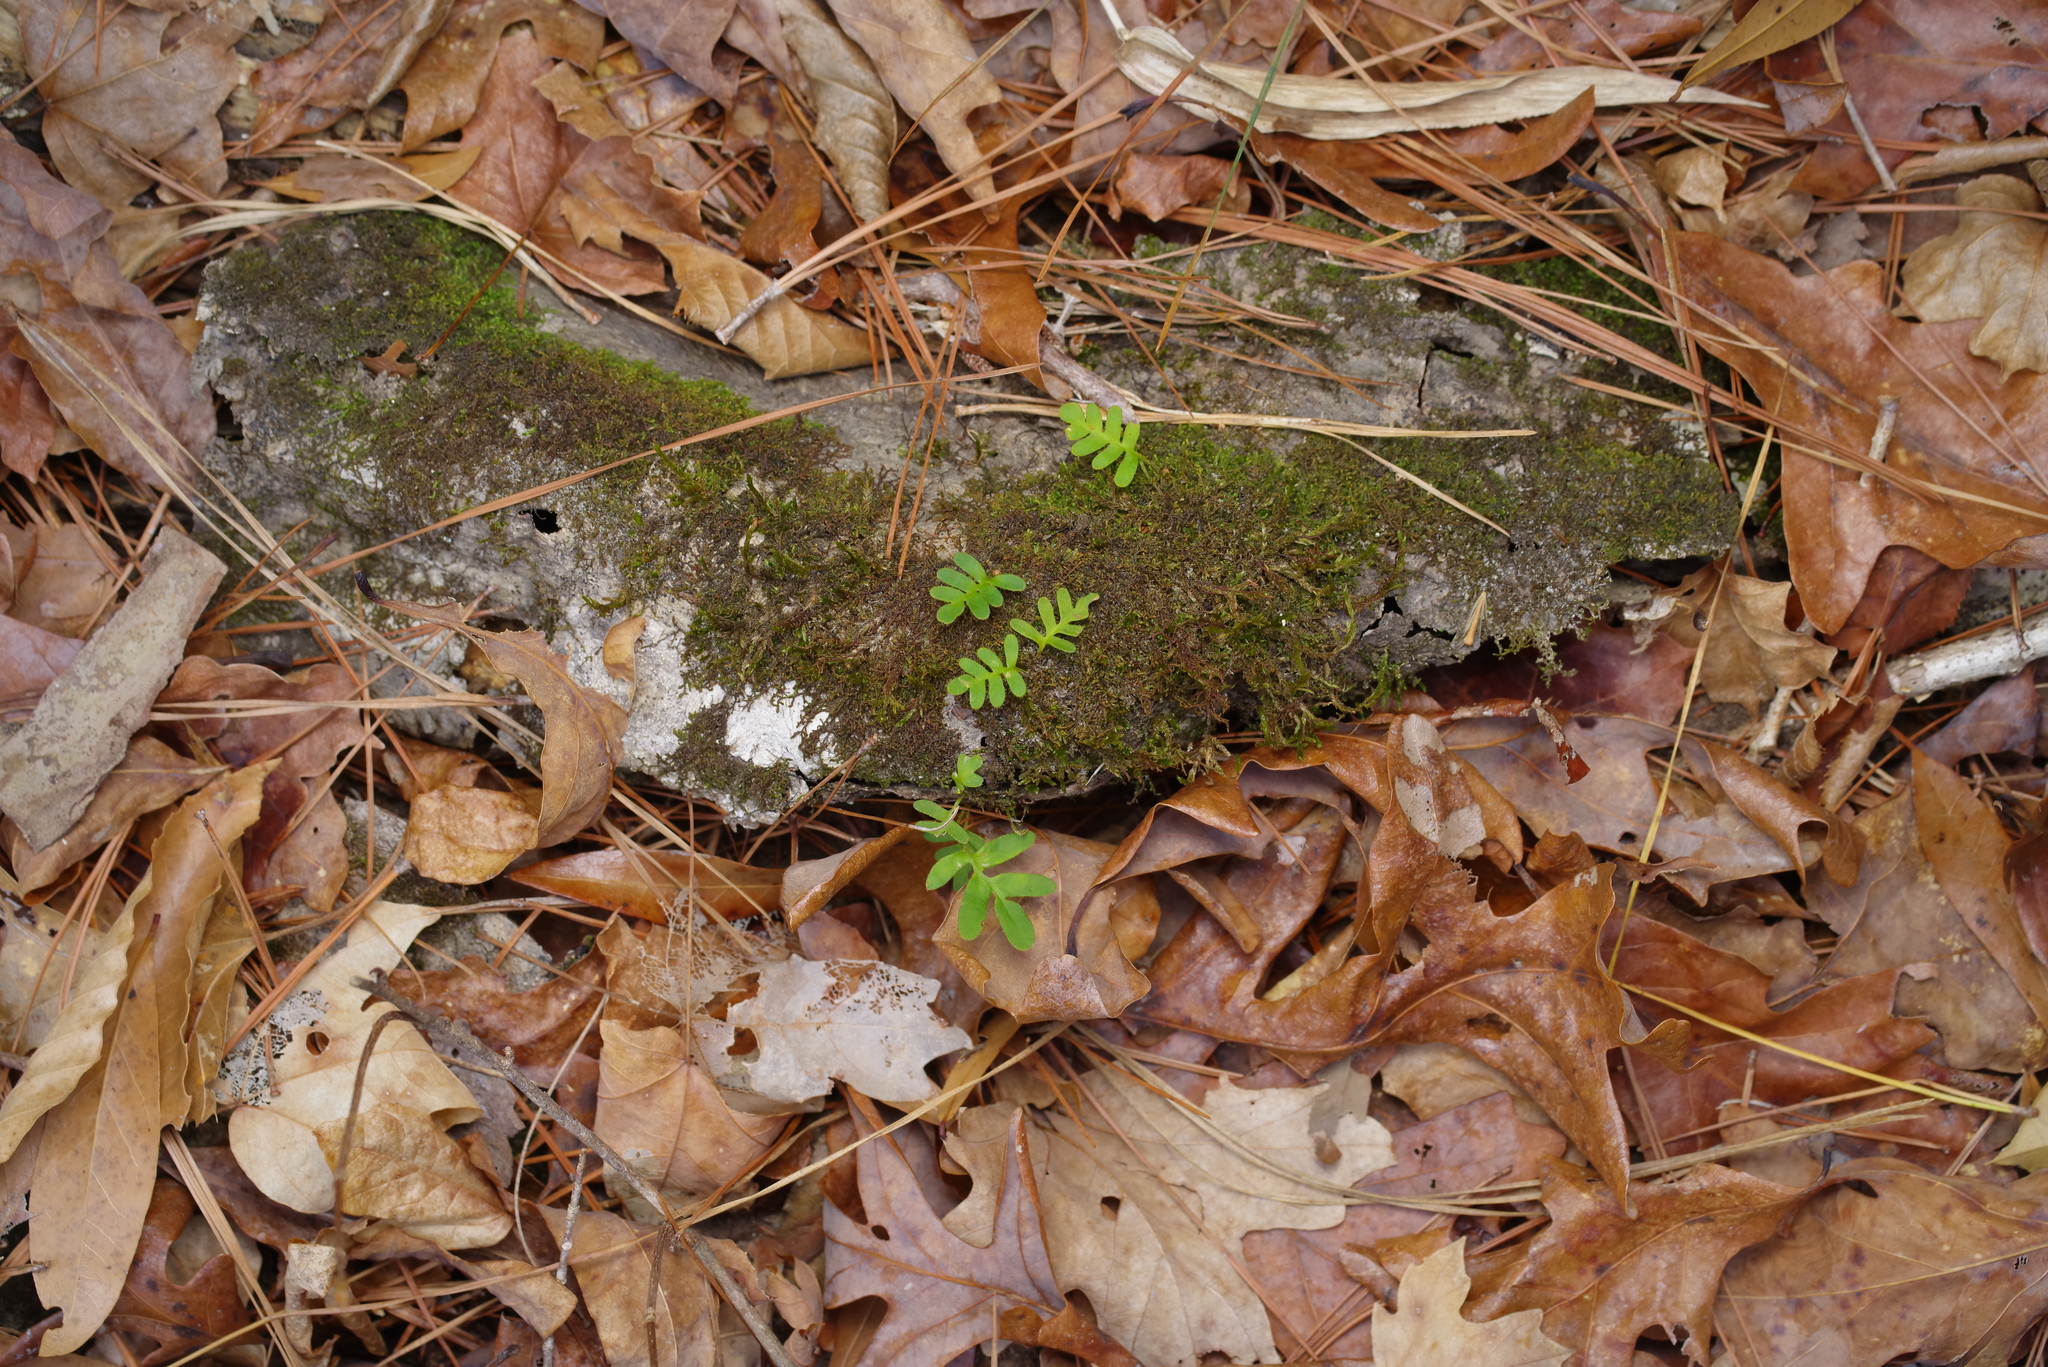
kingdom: Plantae
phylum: Tracheophyta
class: Polypodiopsida
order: Polypodiales
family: Polypodiaceae
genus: Pleopeltis
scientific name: Pleopeltis michauxiana
